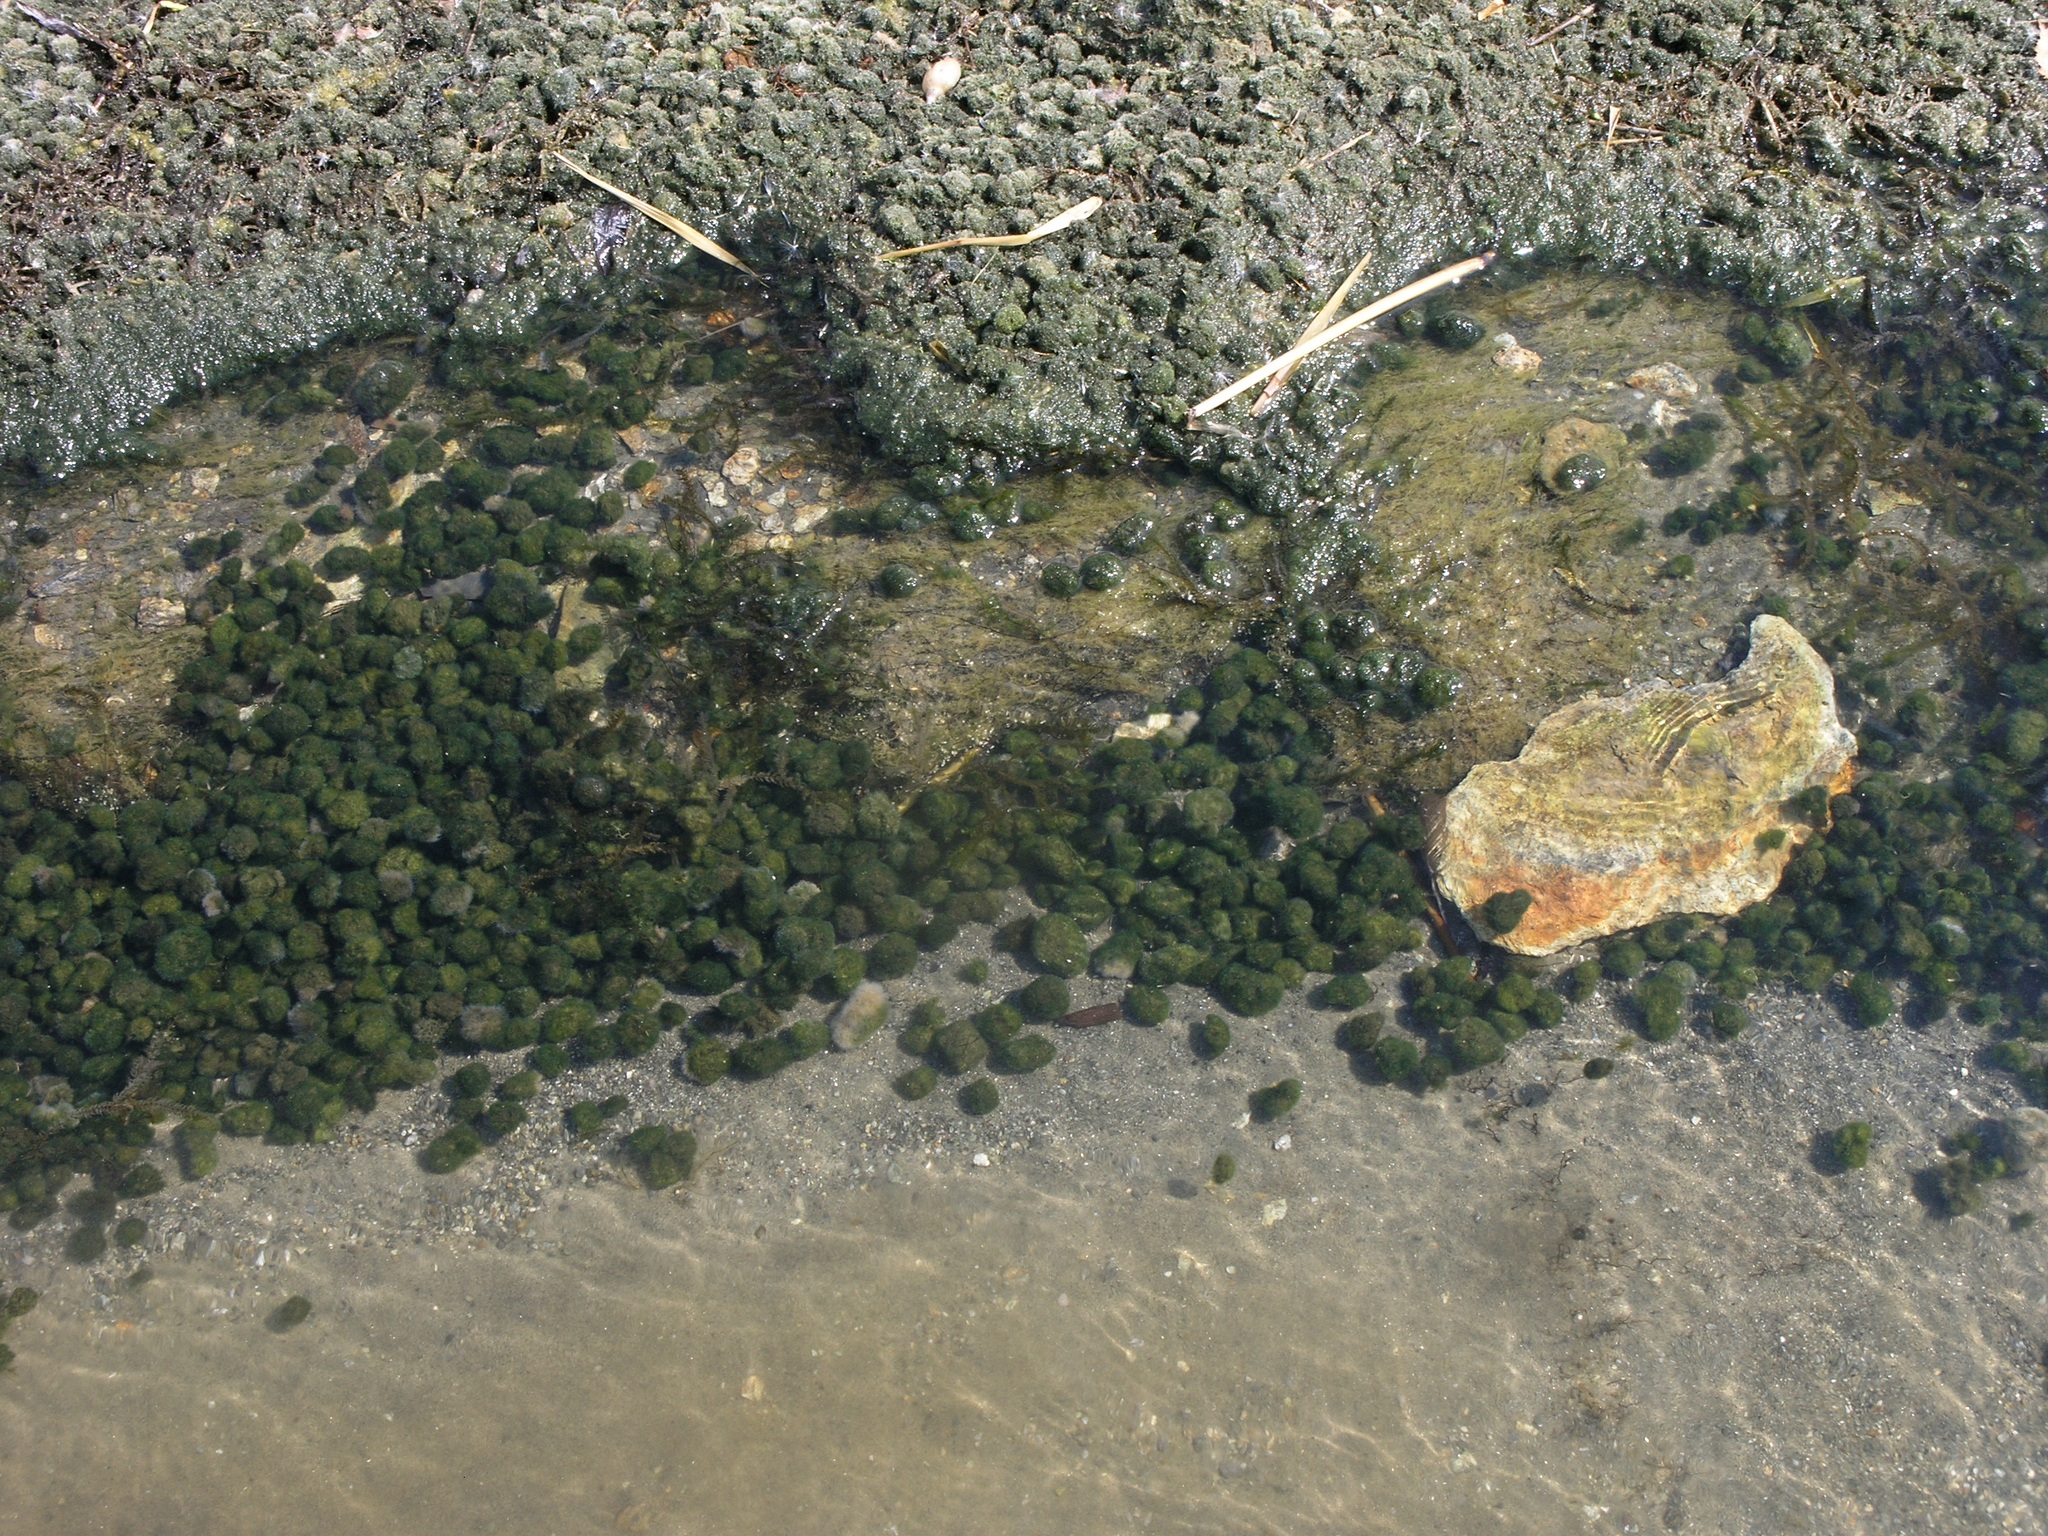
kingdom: Plantae
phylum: Chlorophyta
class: Ulvophyceae
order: Cladophorales
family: Cladophoraceae
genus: Aegagropila
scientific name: Aegagropila linnaei
